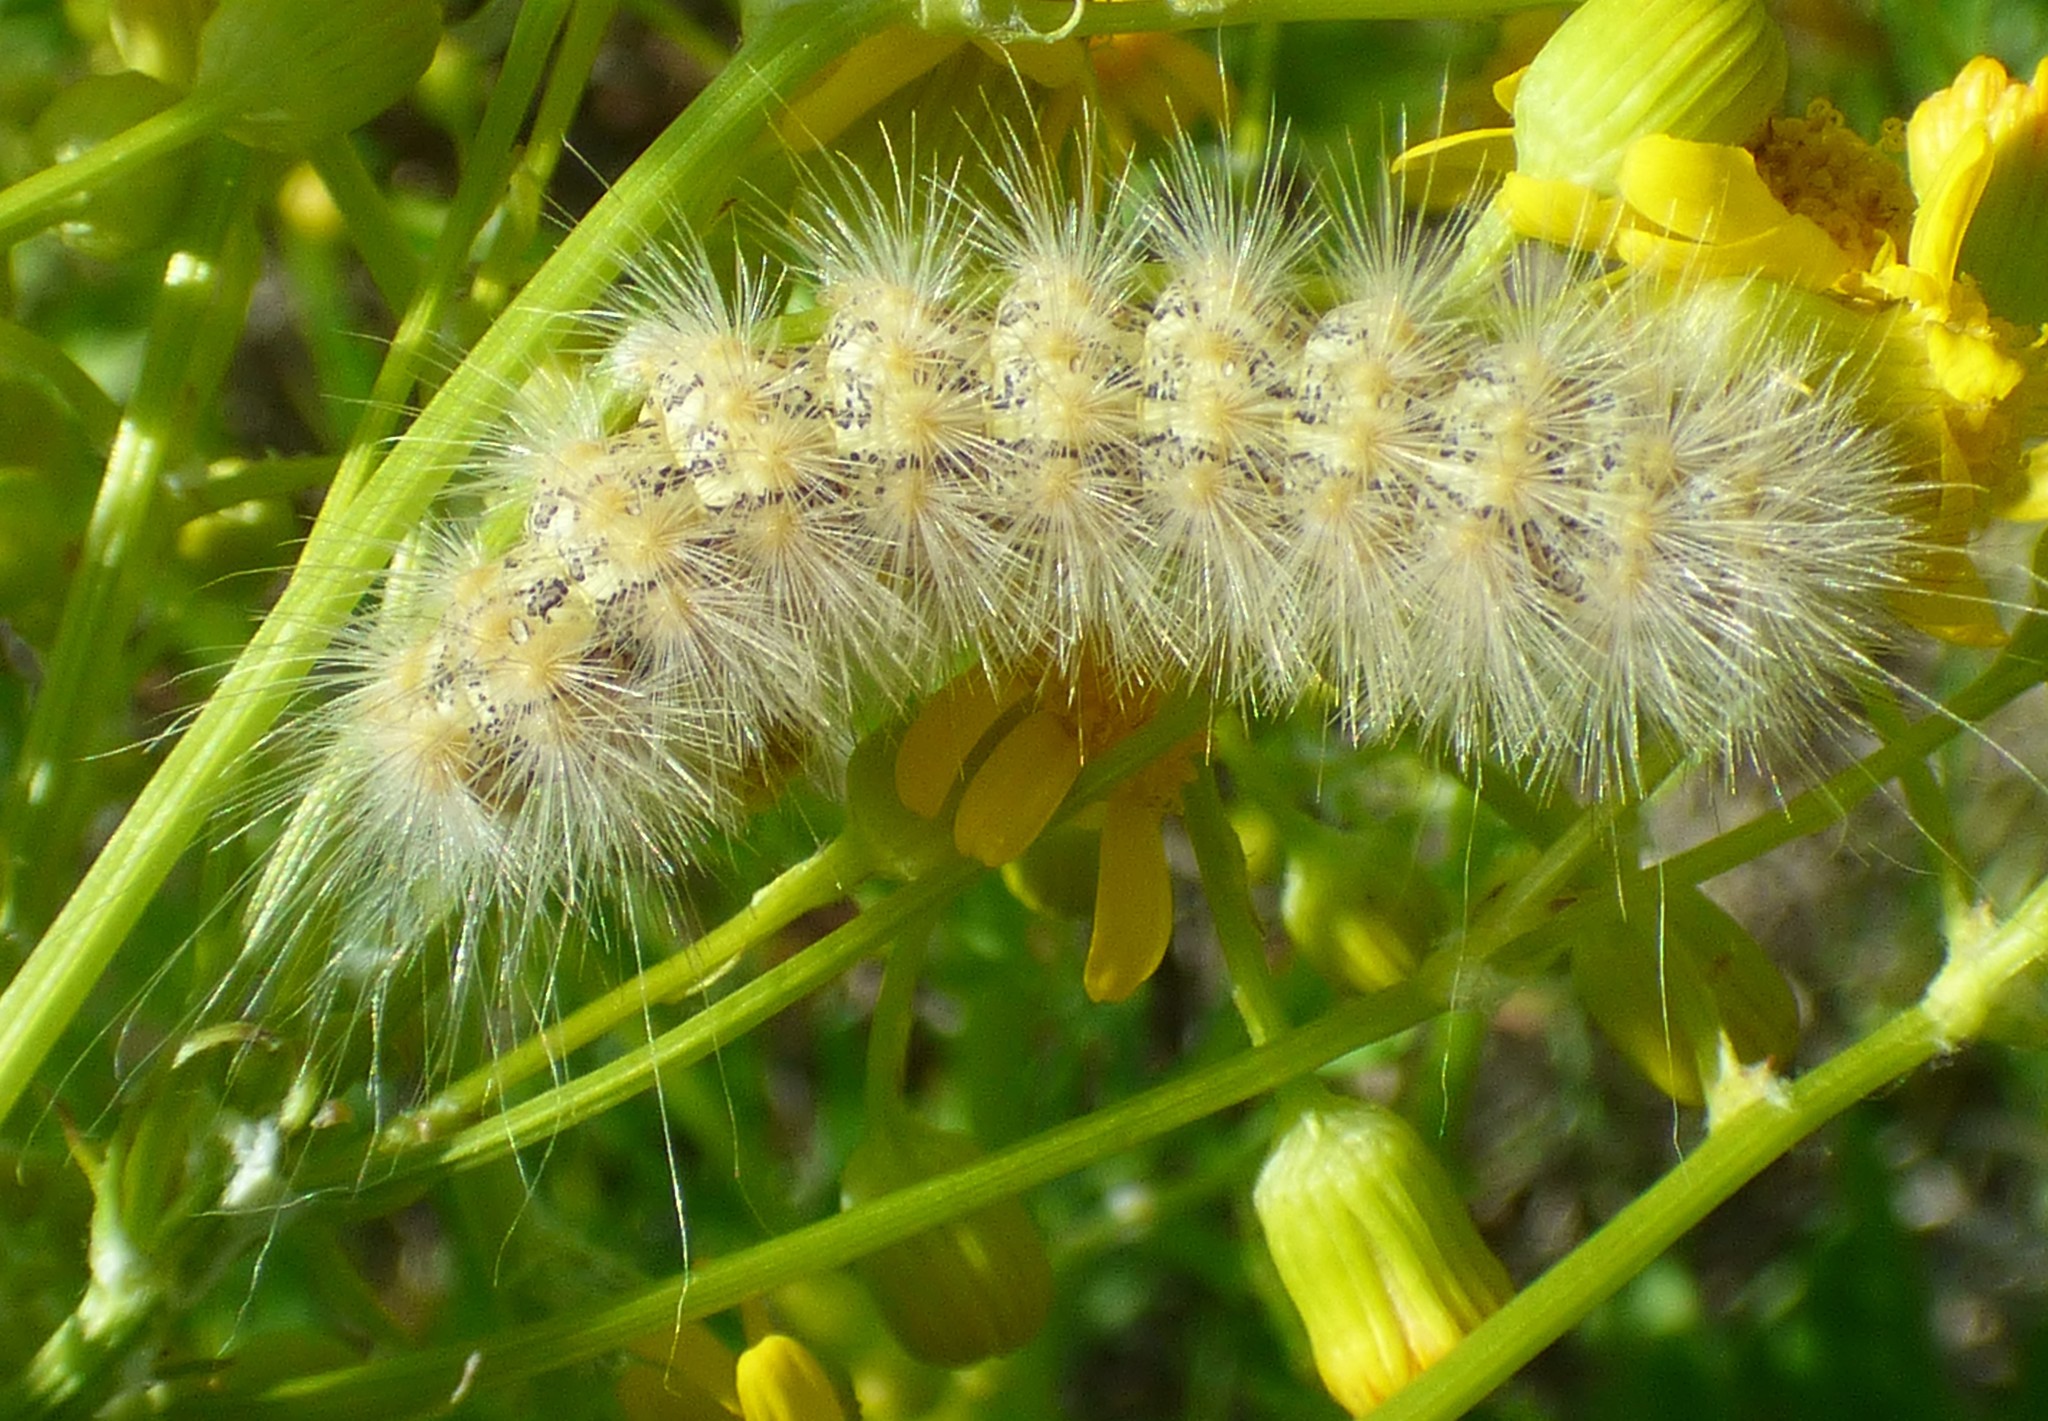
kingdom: Animalia
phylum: Arthropoda
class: Insecta
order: Lepidoptera
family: Erebidae
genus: Estigmene
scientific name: Estigmene acrea
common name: Salt marsh moth
